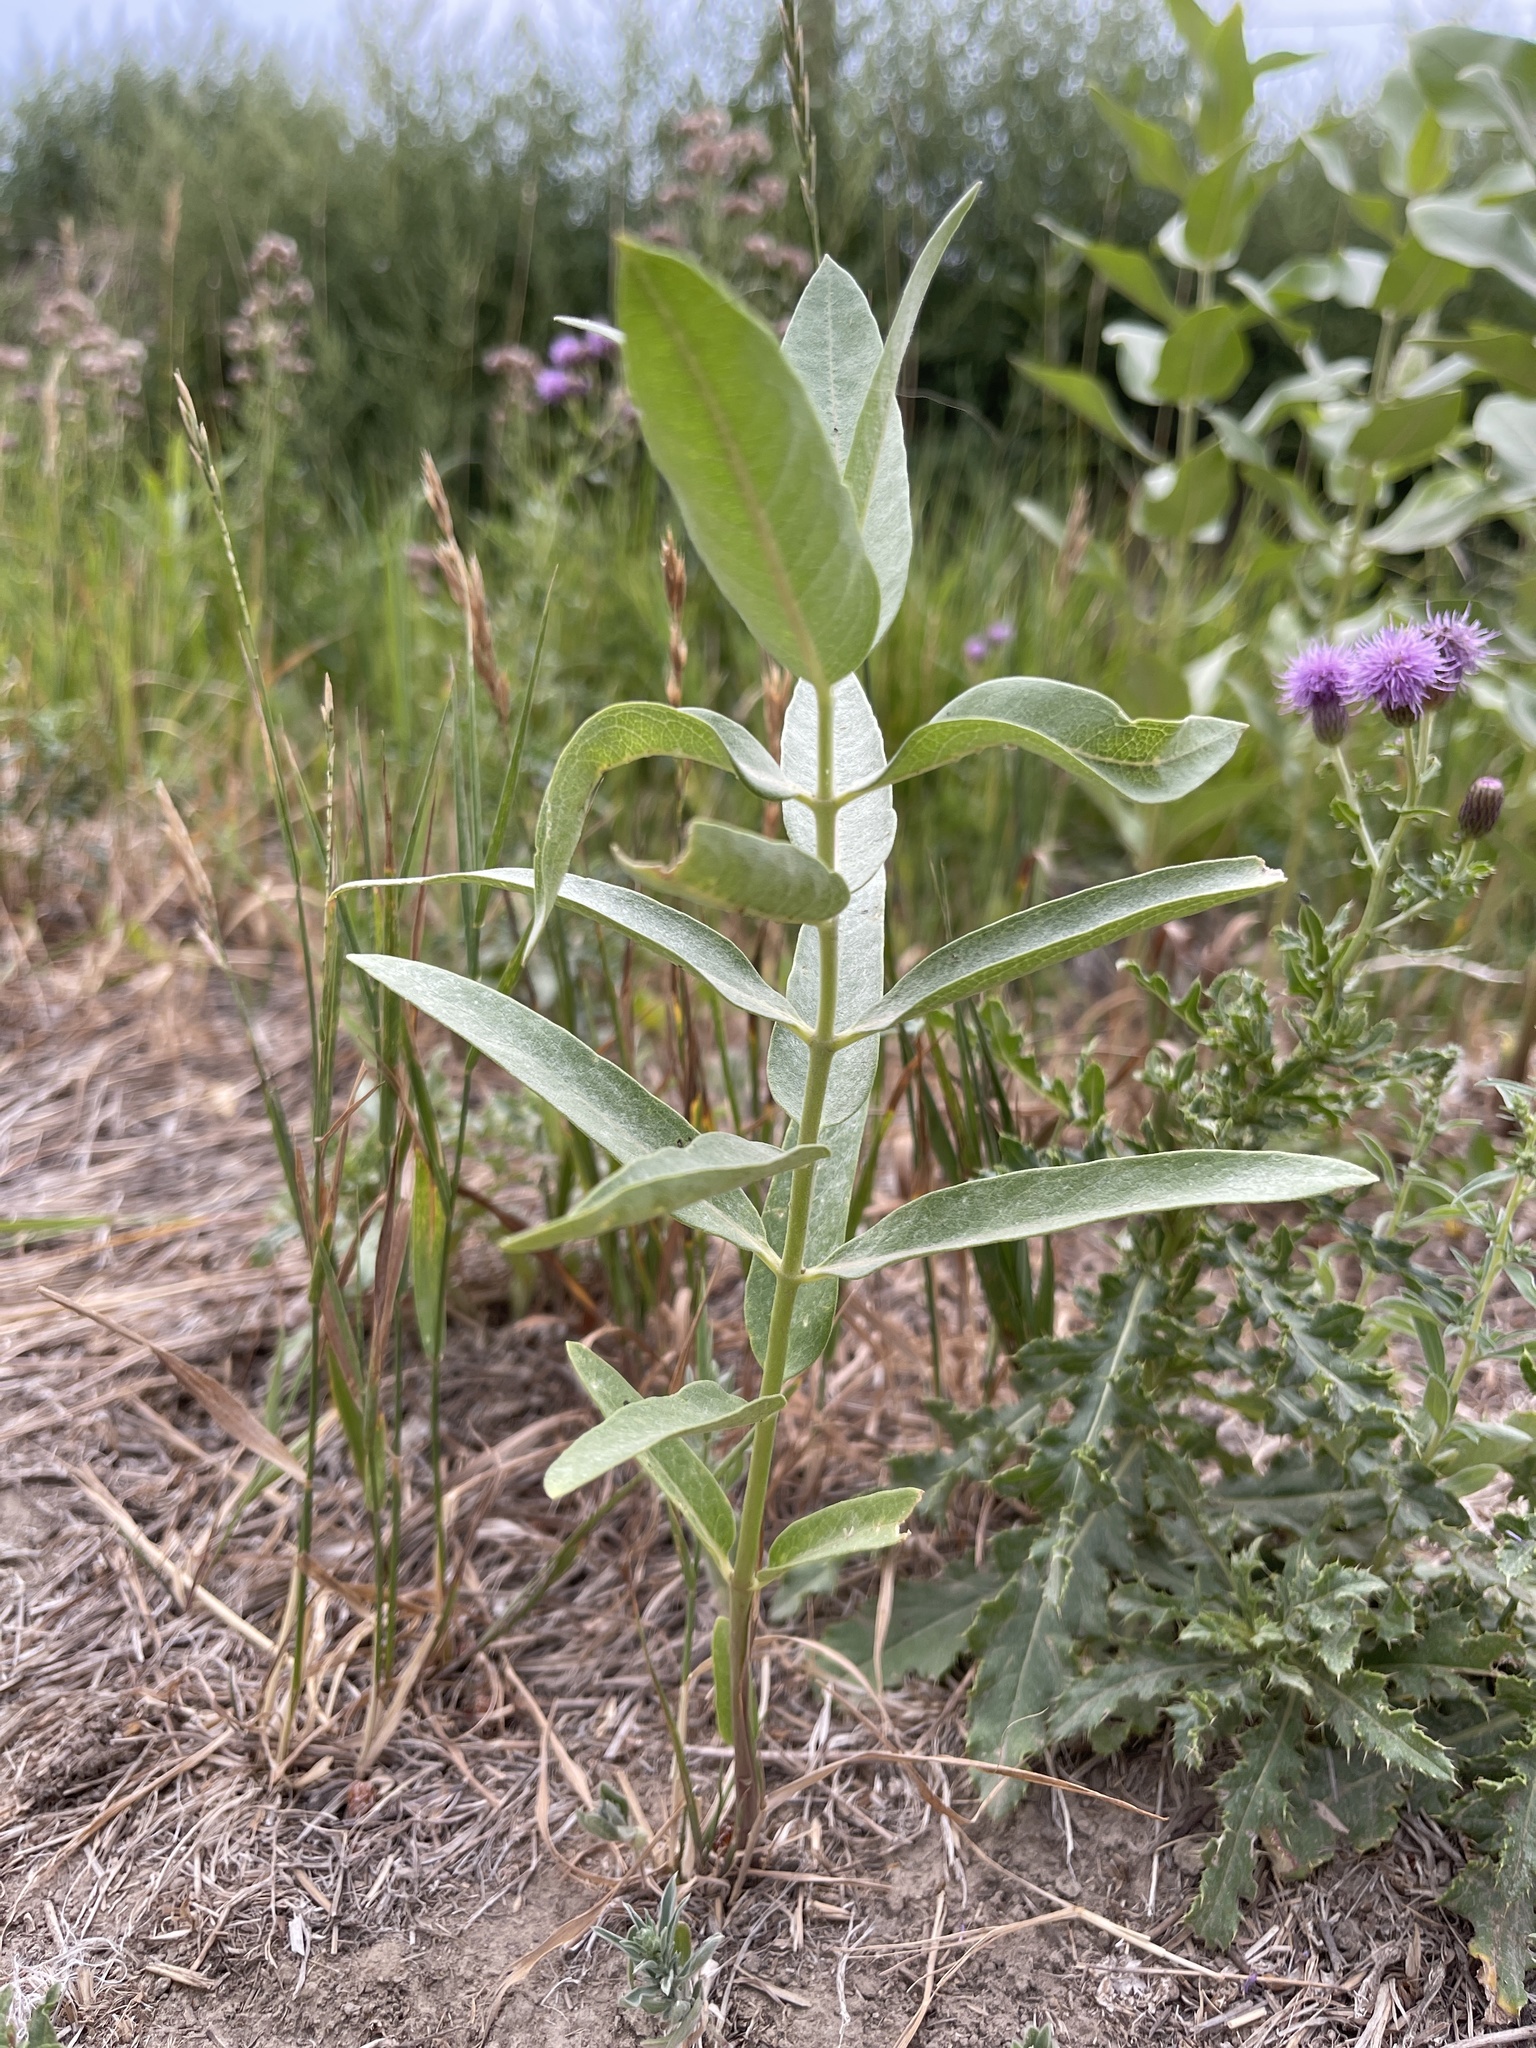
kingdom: Plantae
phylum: Tracheophyta
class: Magnoliopsida
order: Gentianales
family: Apocynaceae
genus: Asclepias
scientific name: Asclepias speciosa
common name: Showy milkweed
